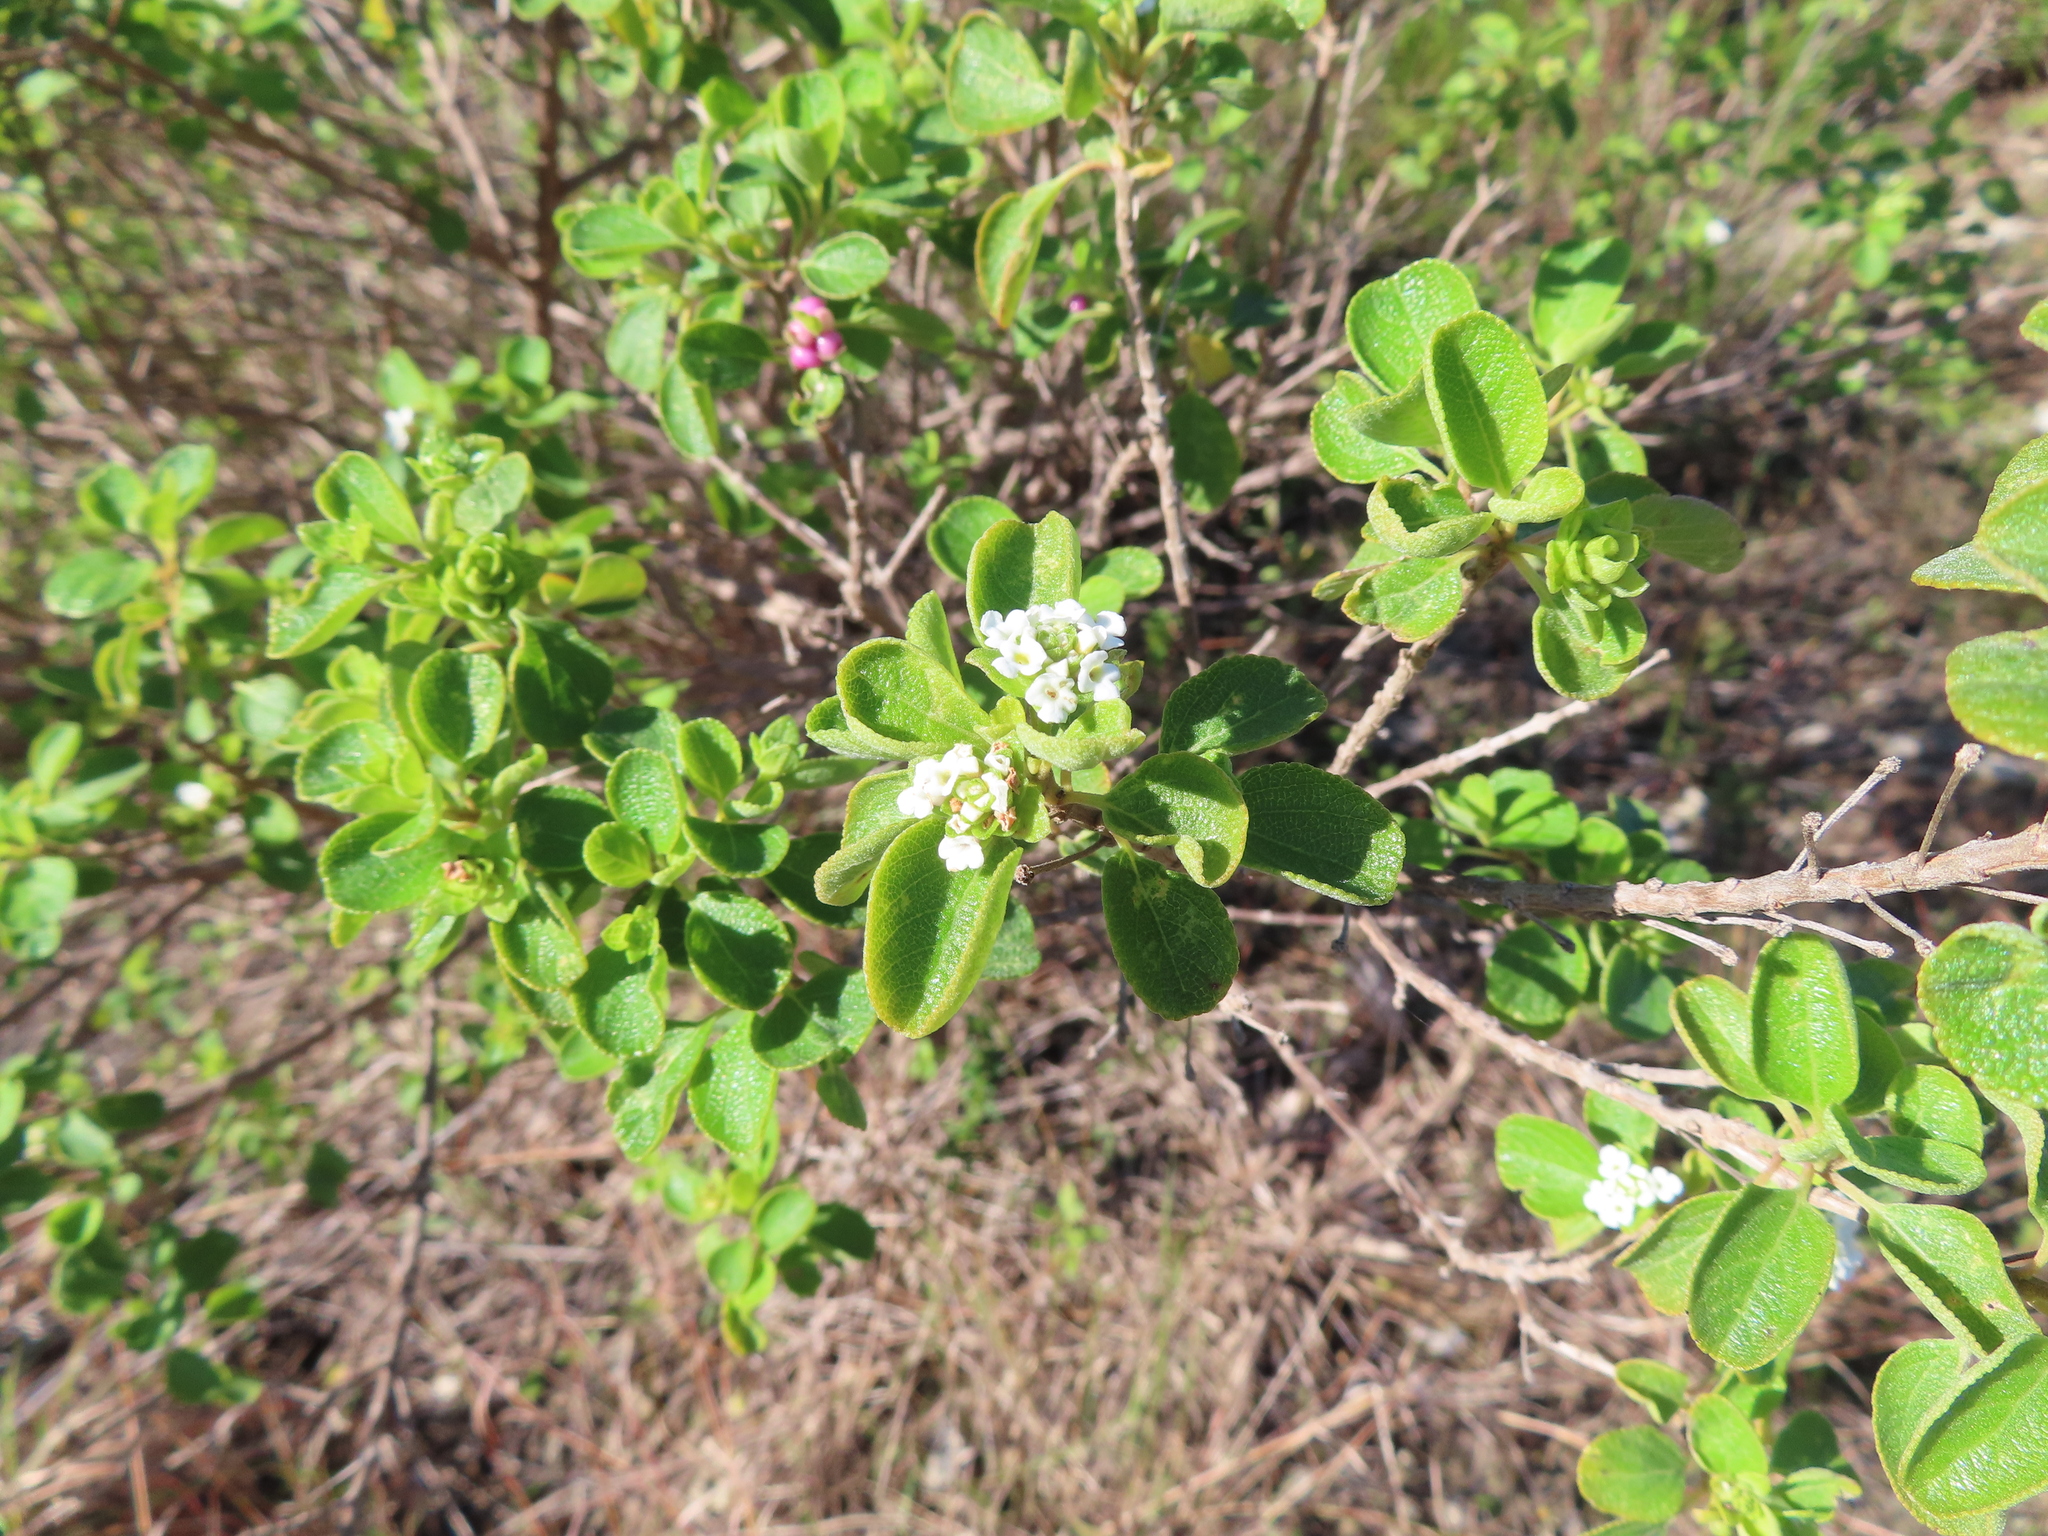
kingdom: Plantae
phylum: Tracheophyta
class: Magnoliopsida
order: Lamiales
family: Verbenaceae
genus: Lantana
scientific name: Lantana involucrata
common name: Black sage
